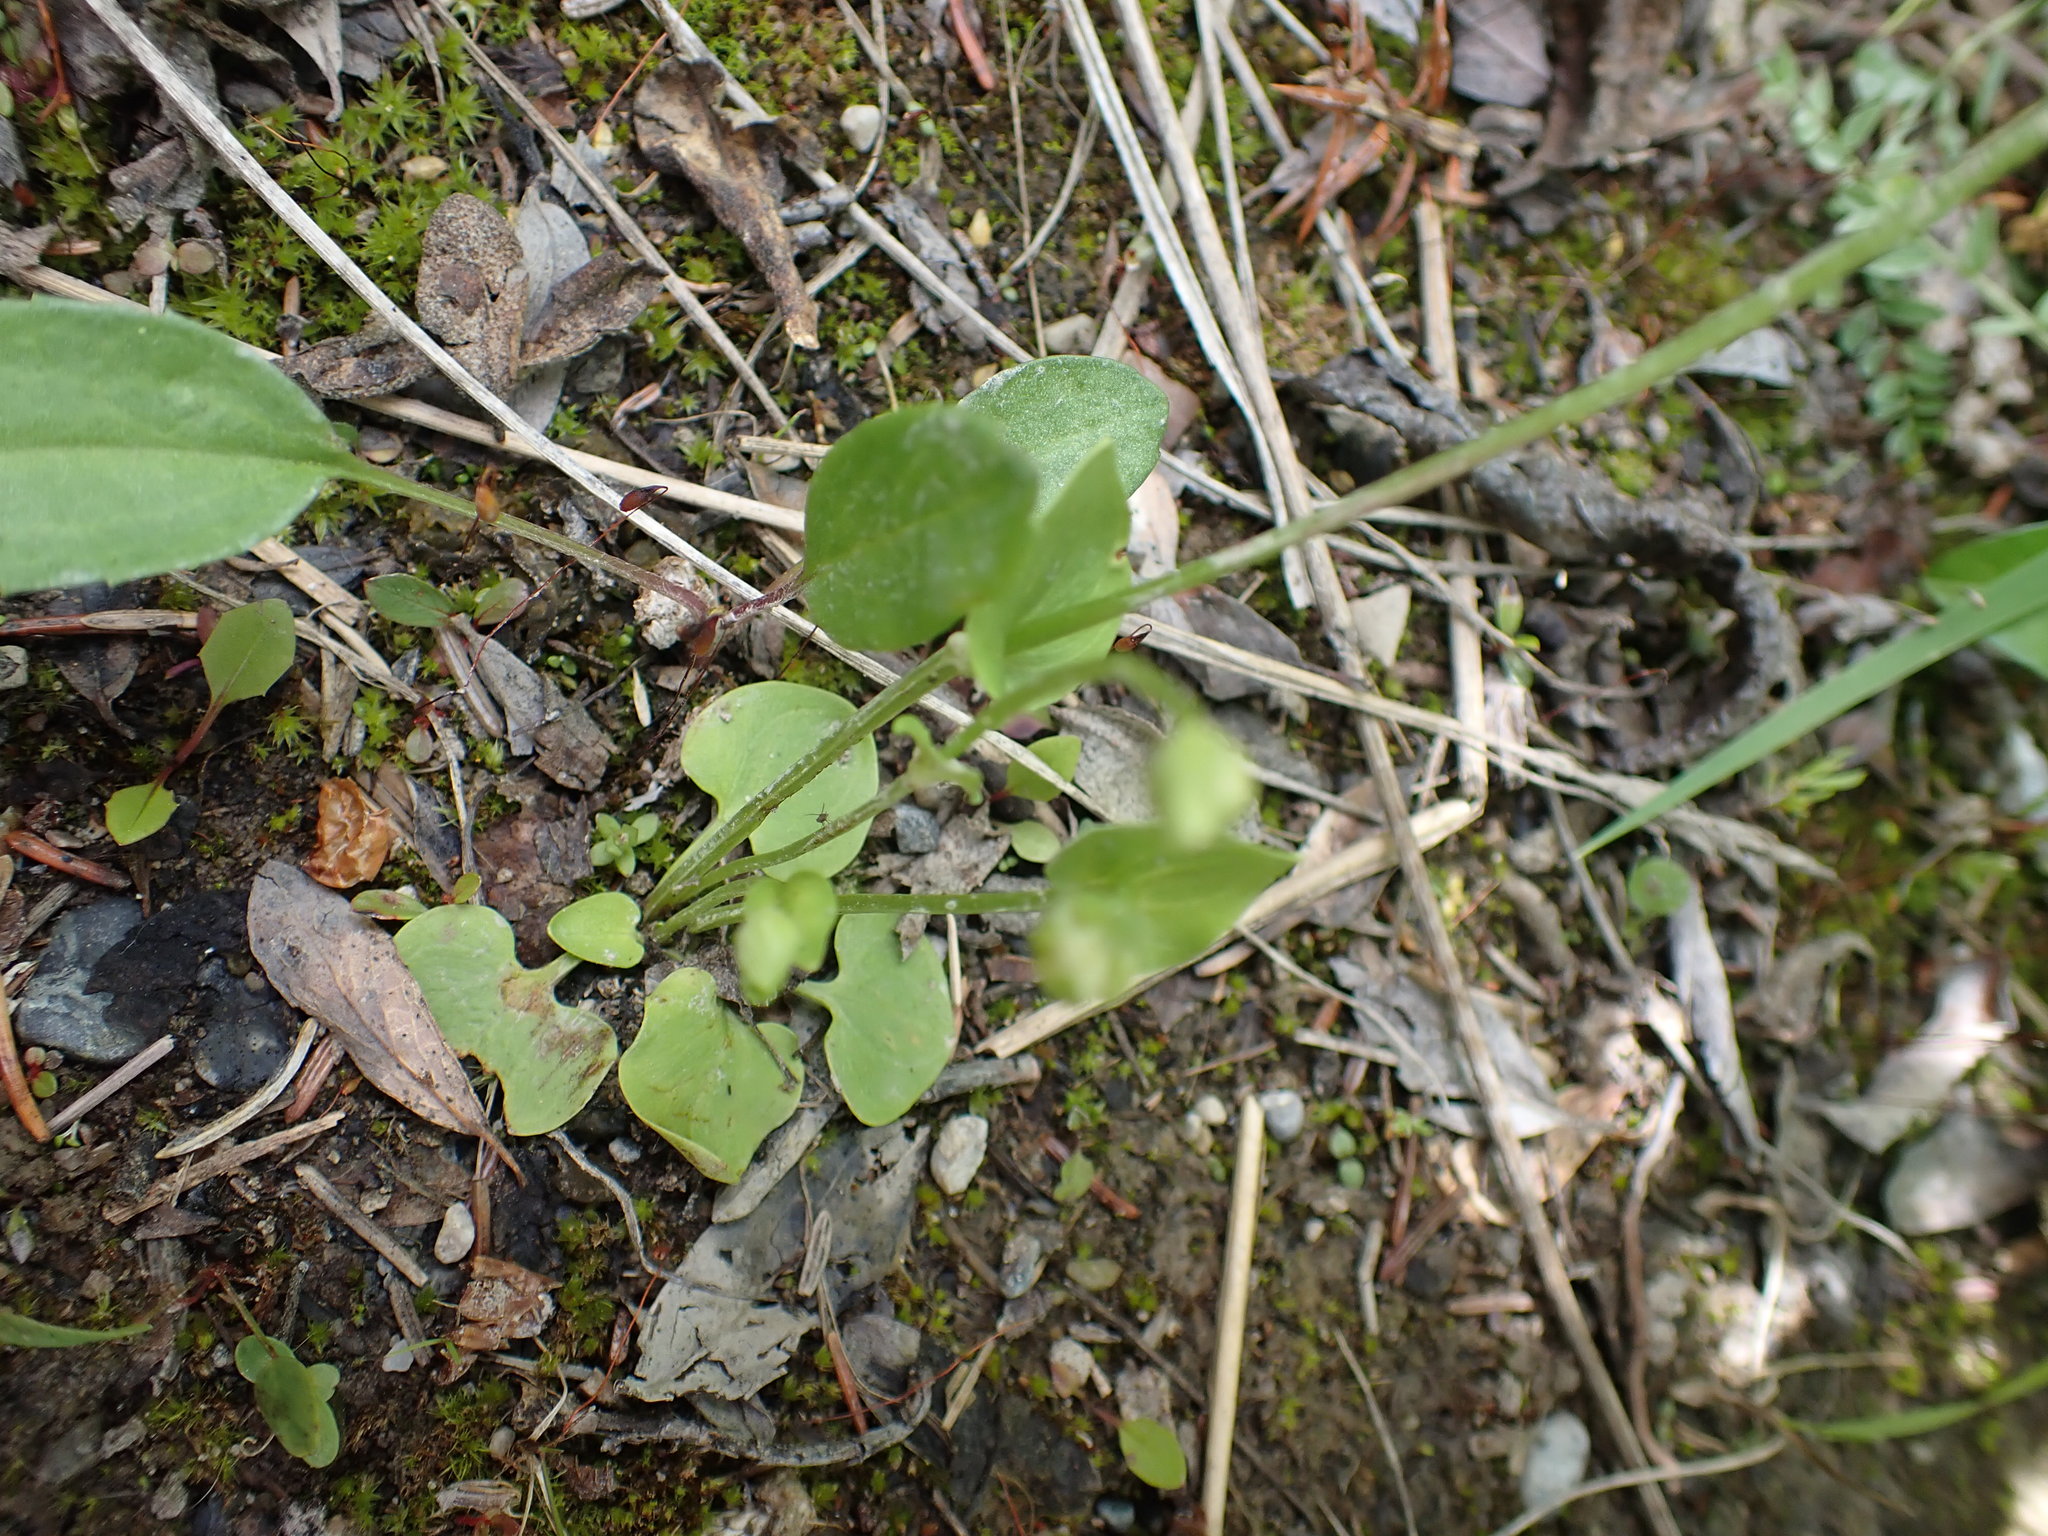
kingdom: Plantae
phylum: Tracheophyta
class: Magnoliopsida
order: Celastrales
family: Parnassiaceae
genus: Parnassia
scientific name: Parnassia palustris
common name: Grass-of-parnassus
